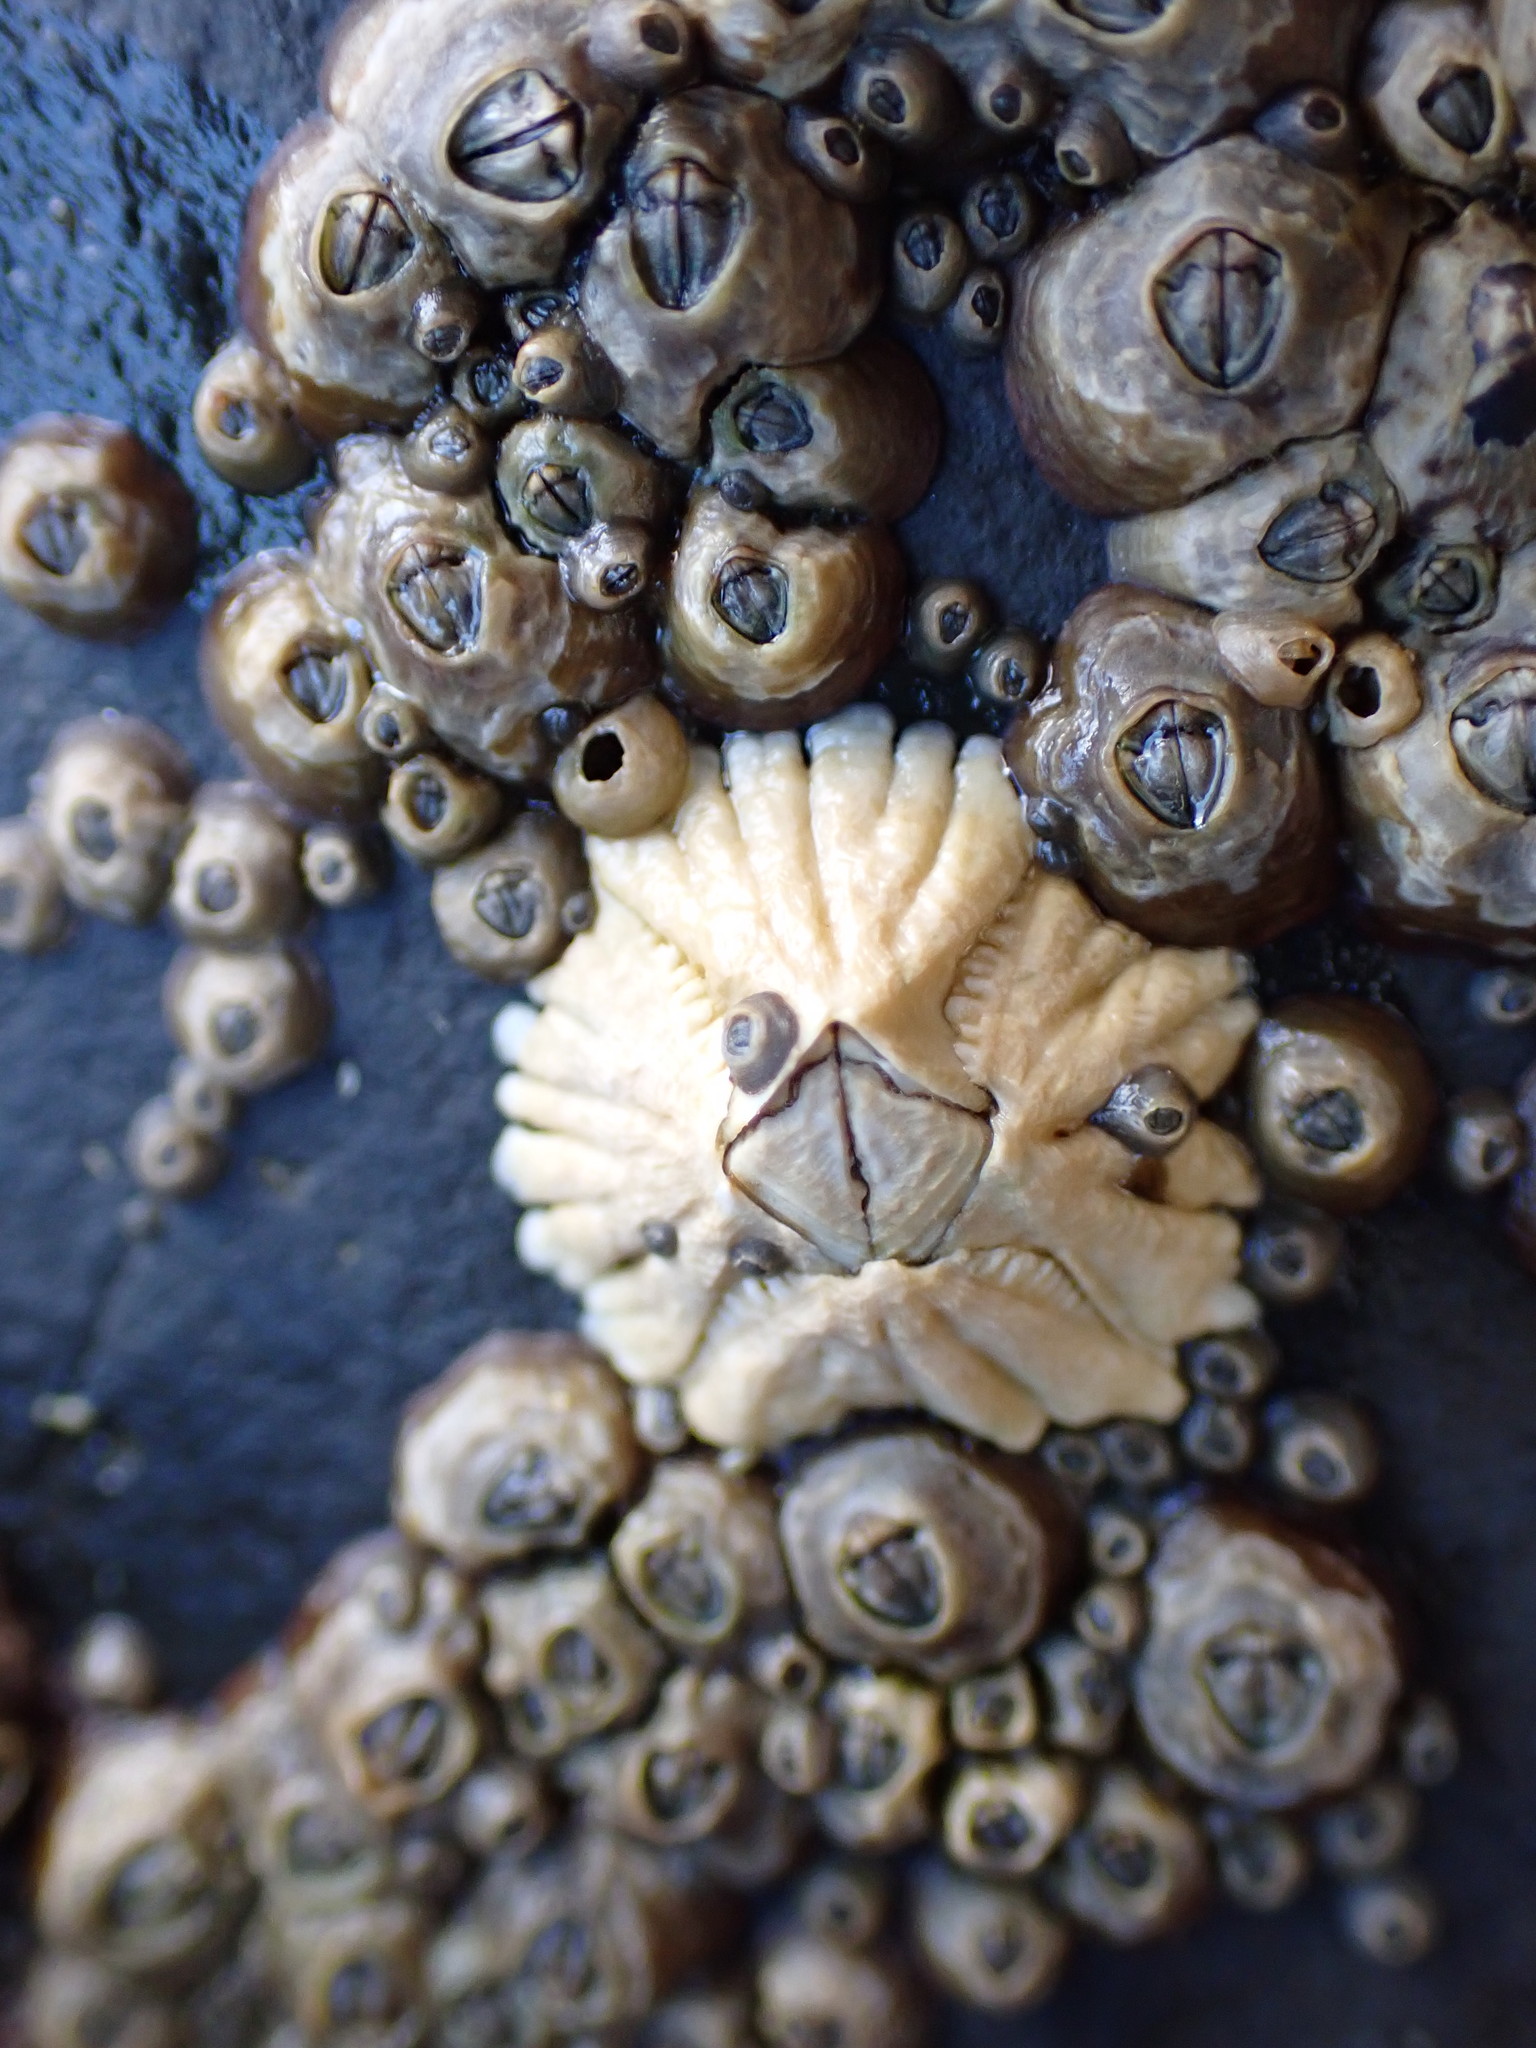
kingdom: Animalia
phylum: Arthropoda
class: Maxillopoda
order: Sessilia
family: Tetraclitidae
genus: Epopella
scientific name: Epopella plicata
